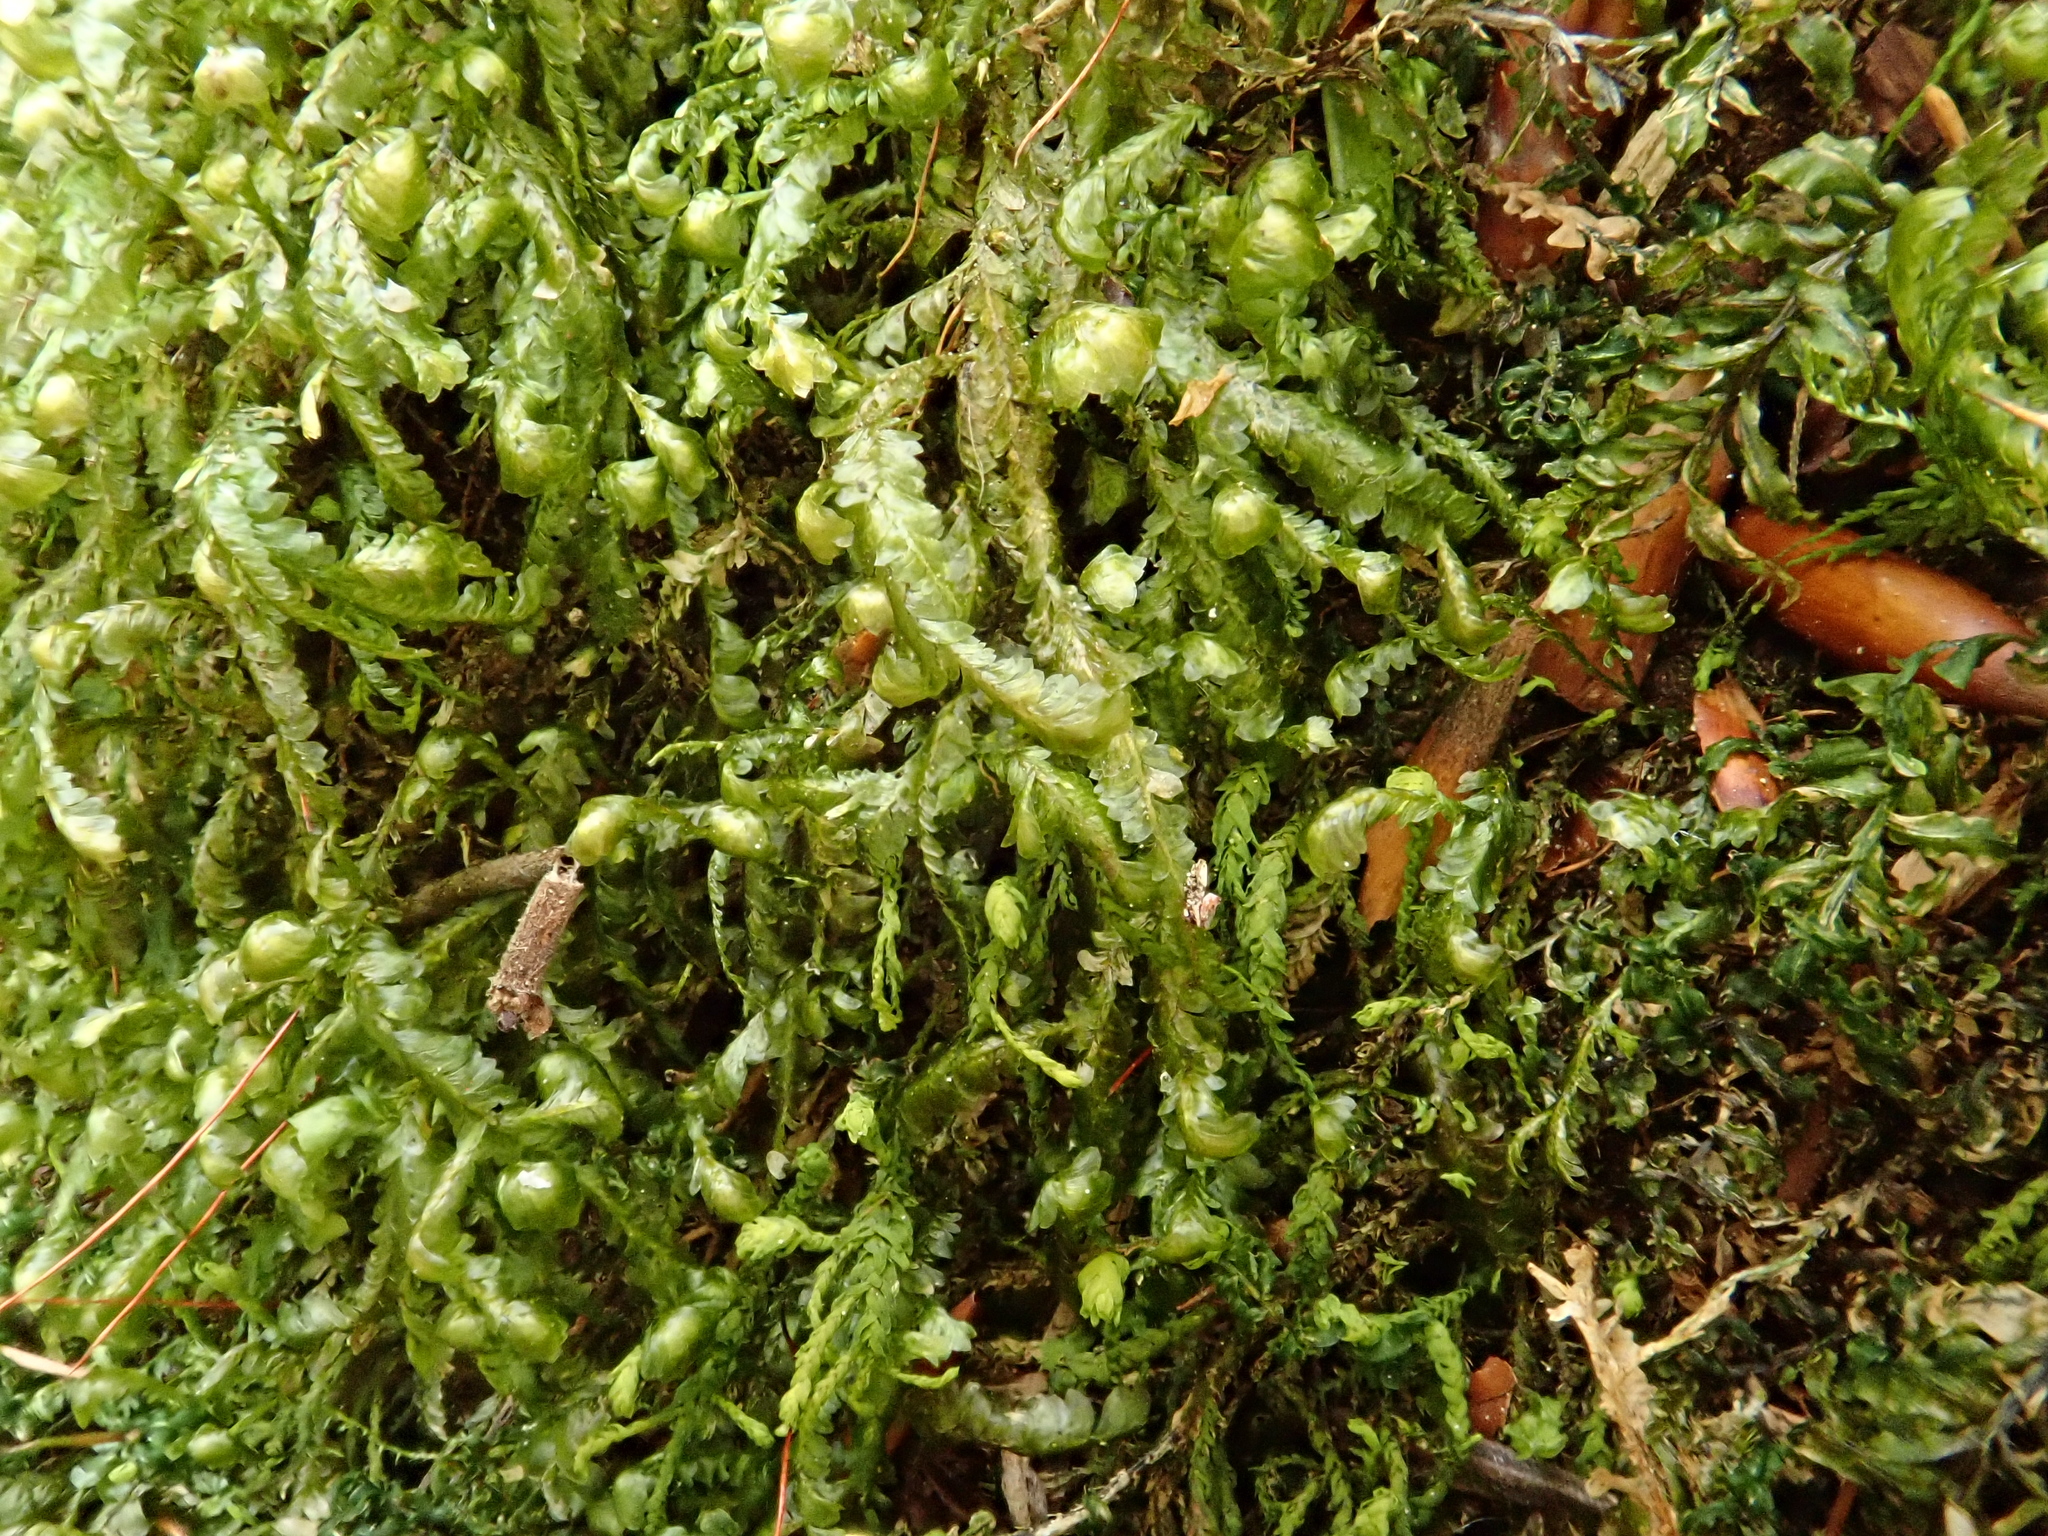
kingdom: Plantae
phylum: Bryophyta
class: Bryopsida
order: Hypnales
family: Neckeraceae
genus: Homalia
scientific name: Homalia trichomanoides
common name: Lime homalia moss
